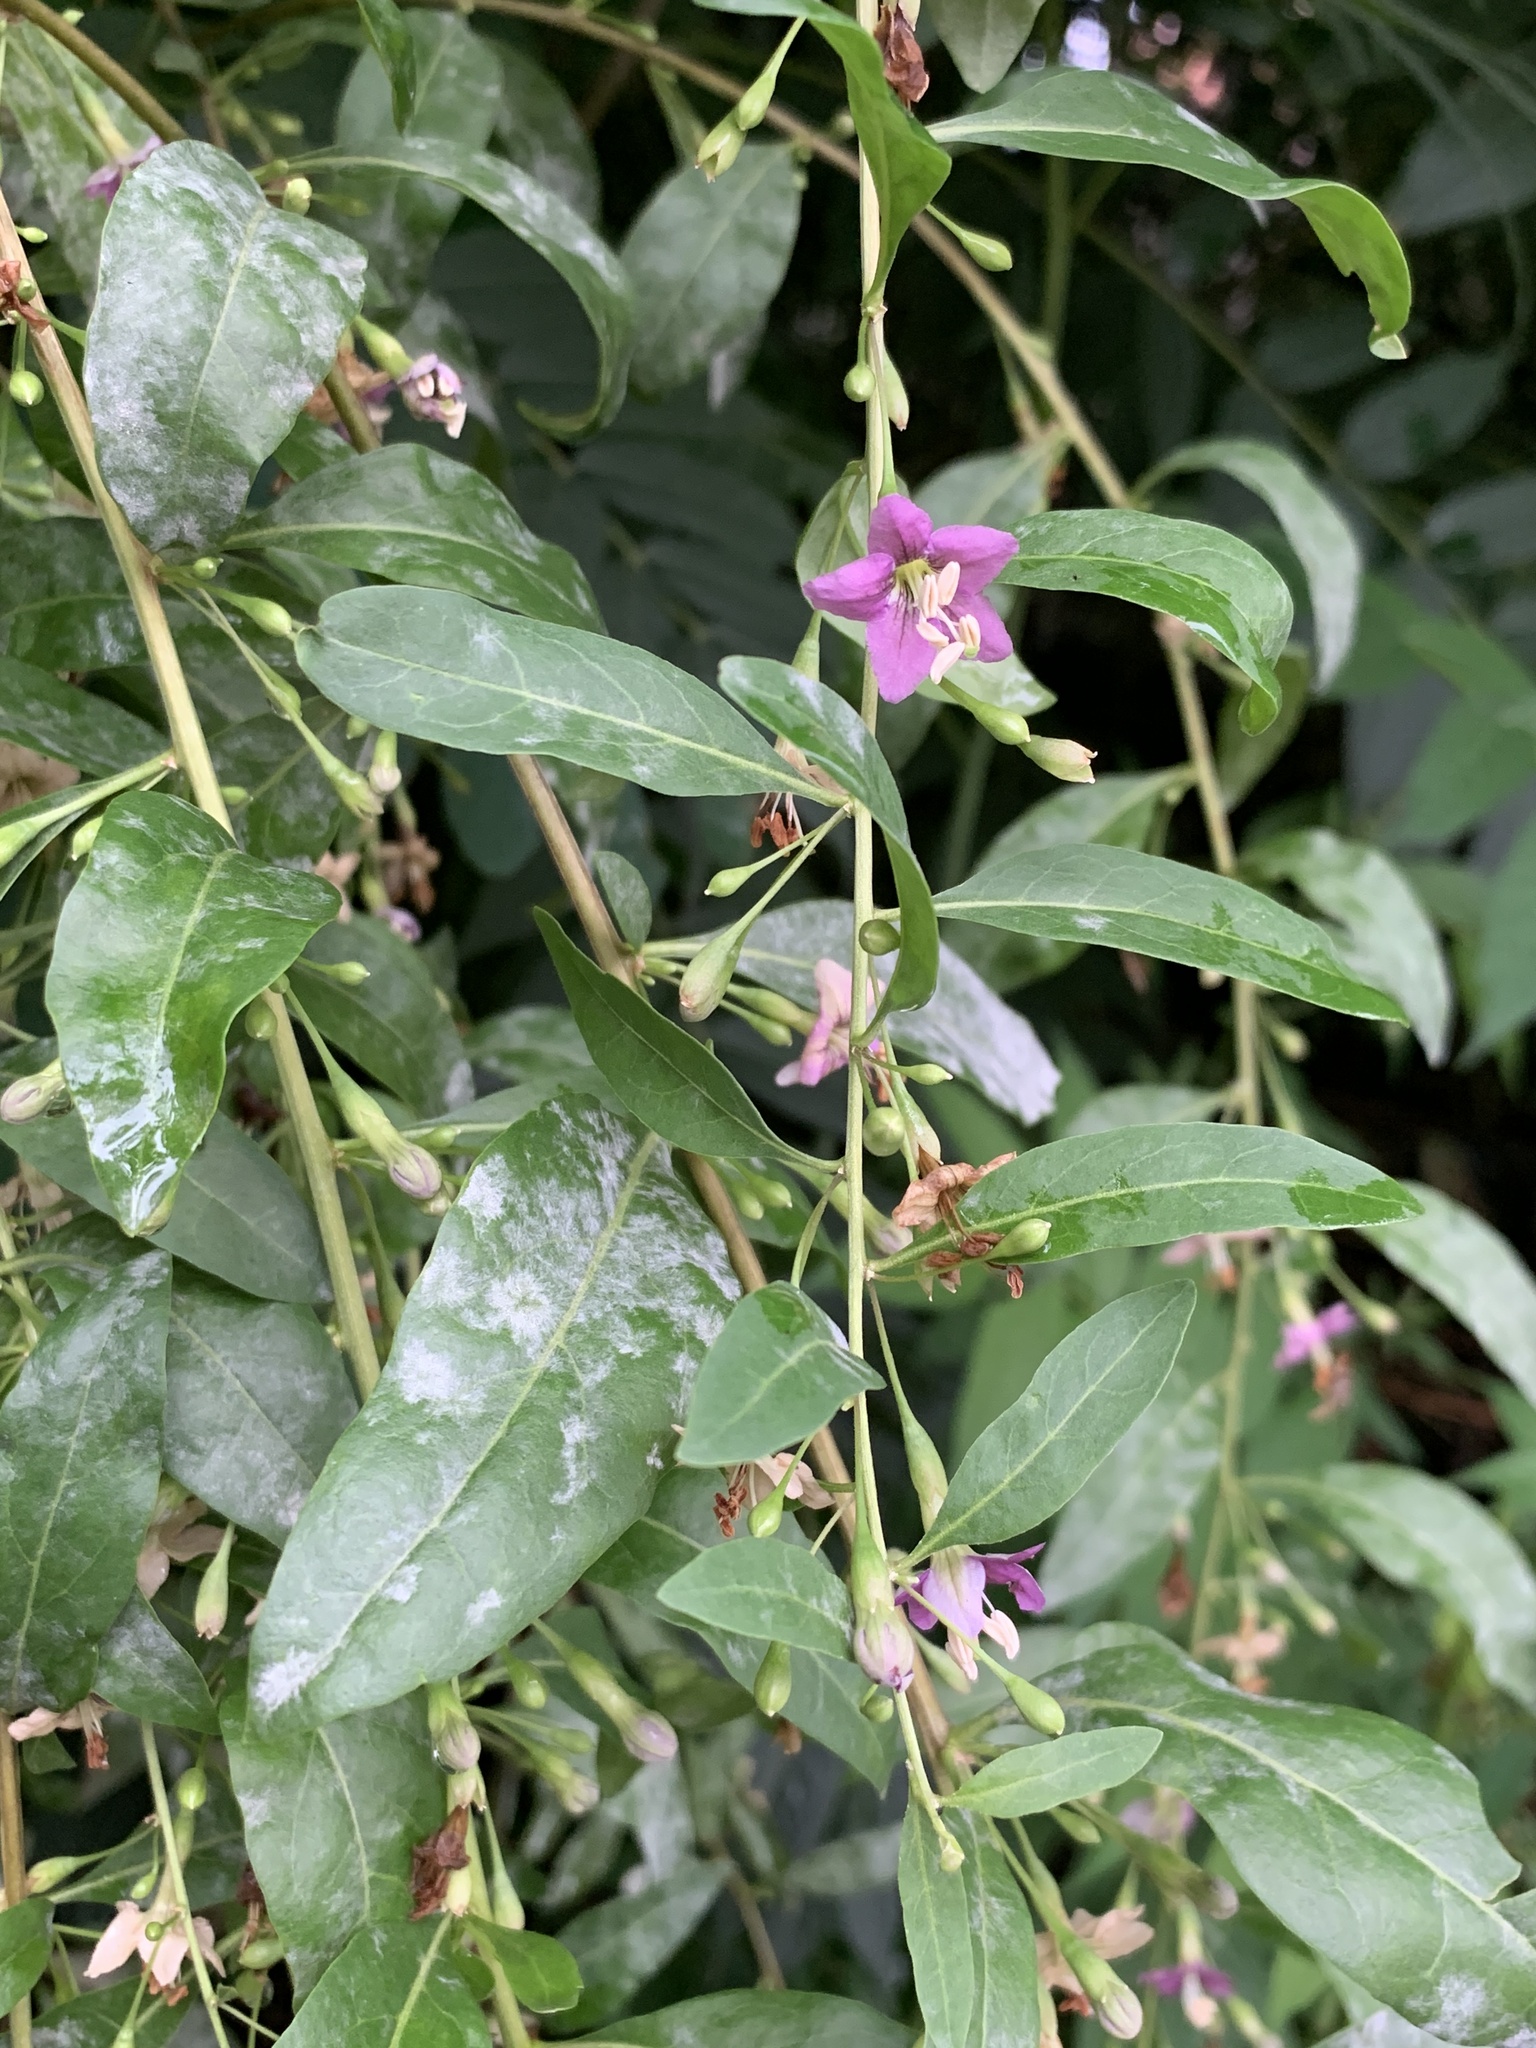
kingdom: Plantae
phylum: Tracheophyta
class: Magnoliopsida
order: Solanales
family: Solanaceae
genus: Lycium
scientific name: Lycium barbarum
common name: Duke of argyll's teaplant
